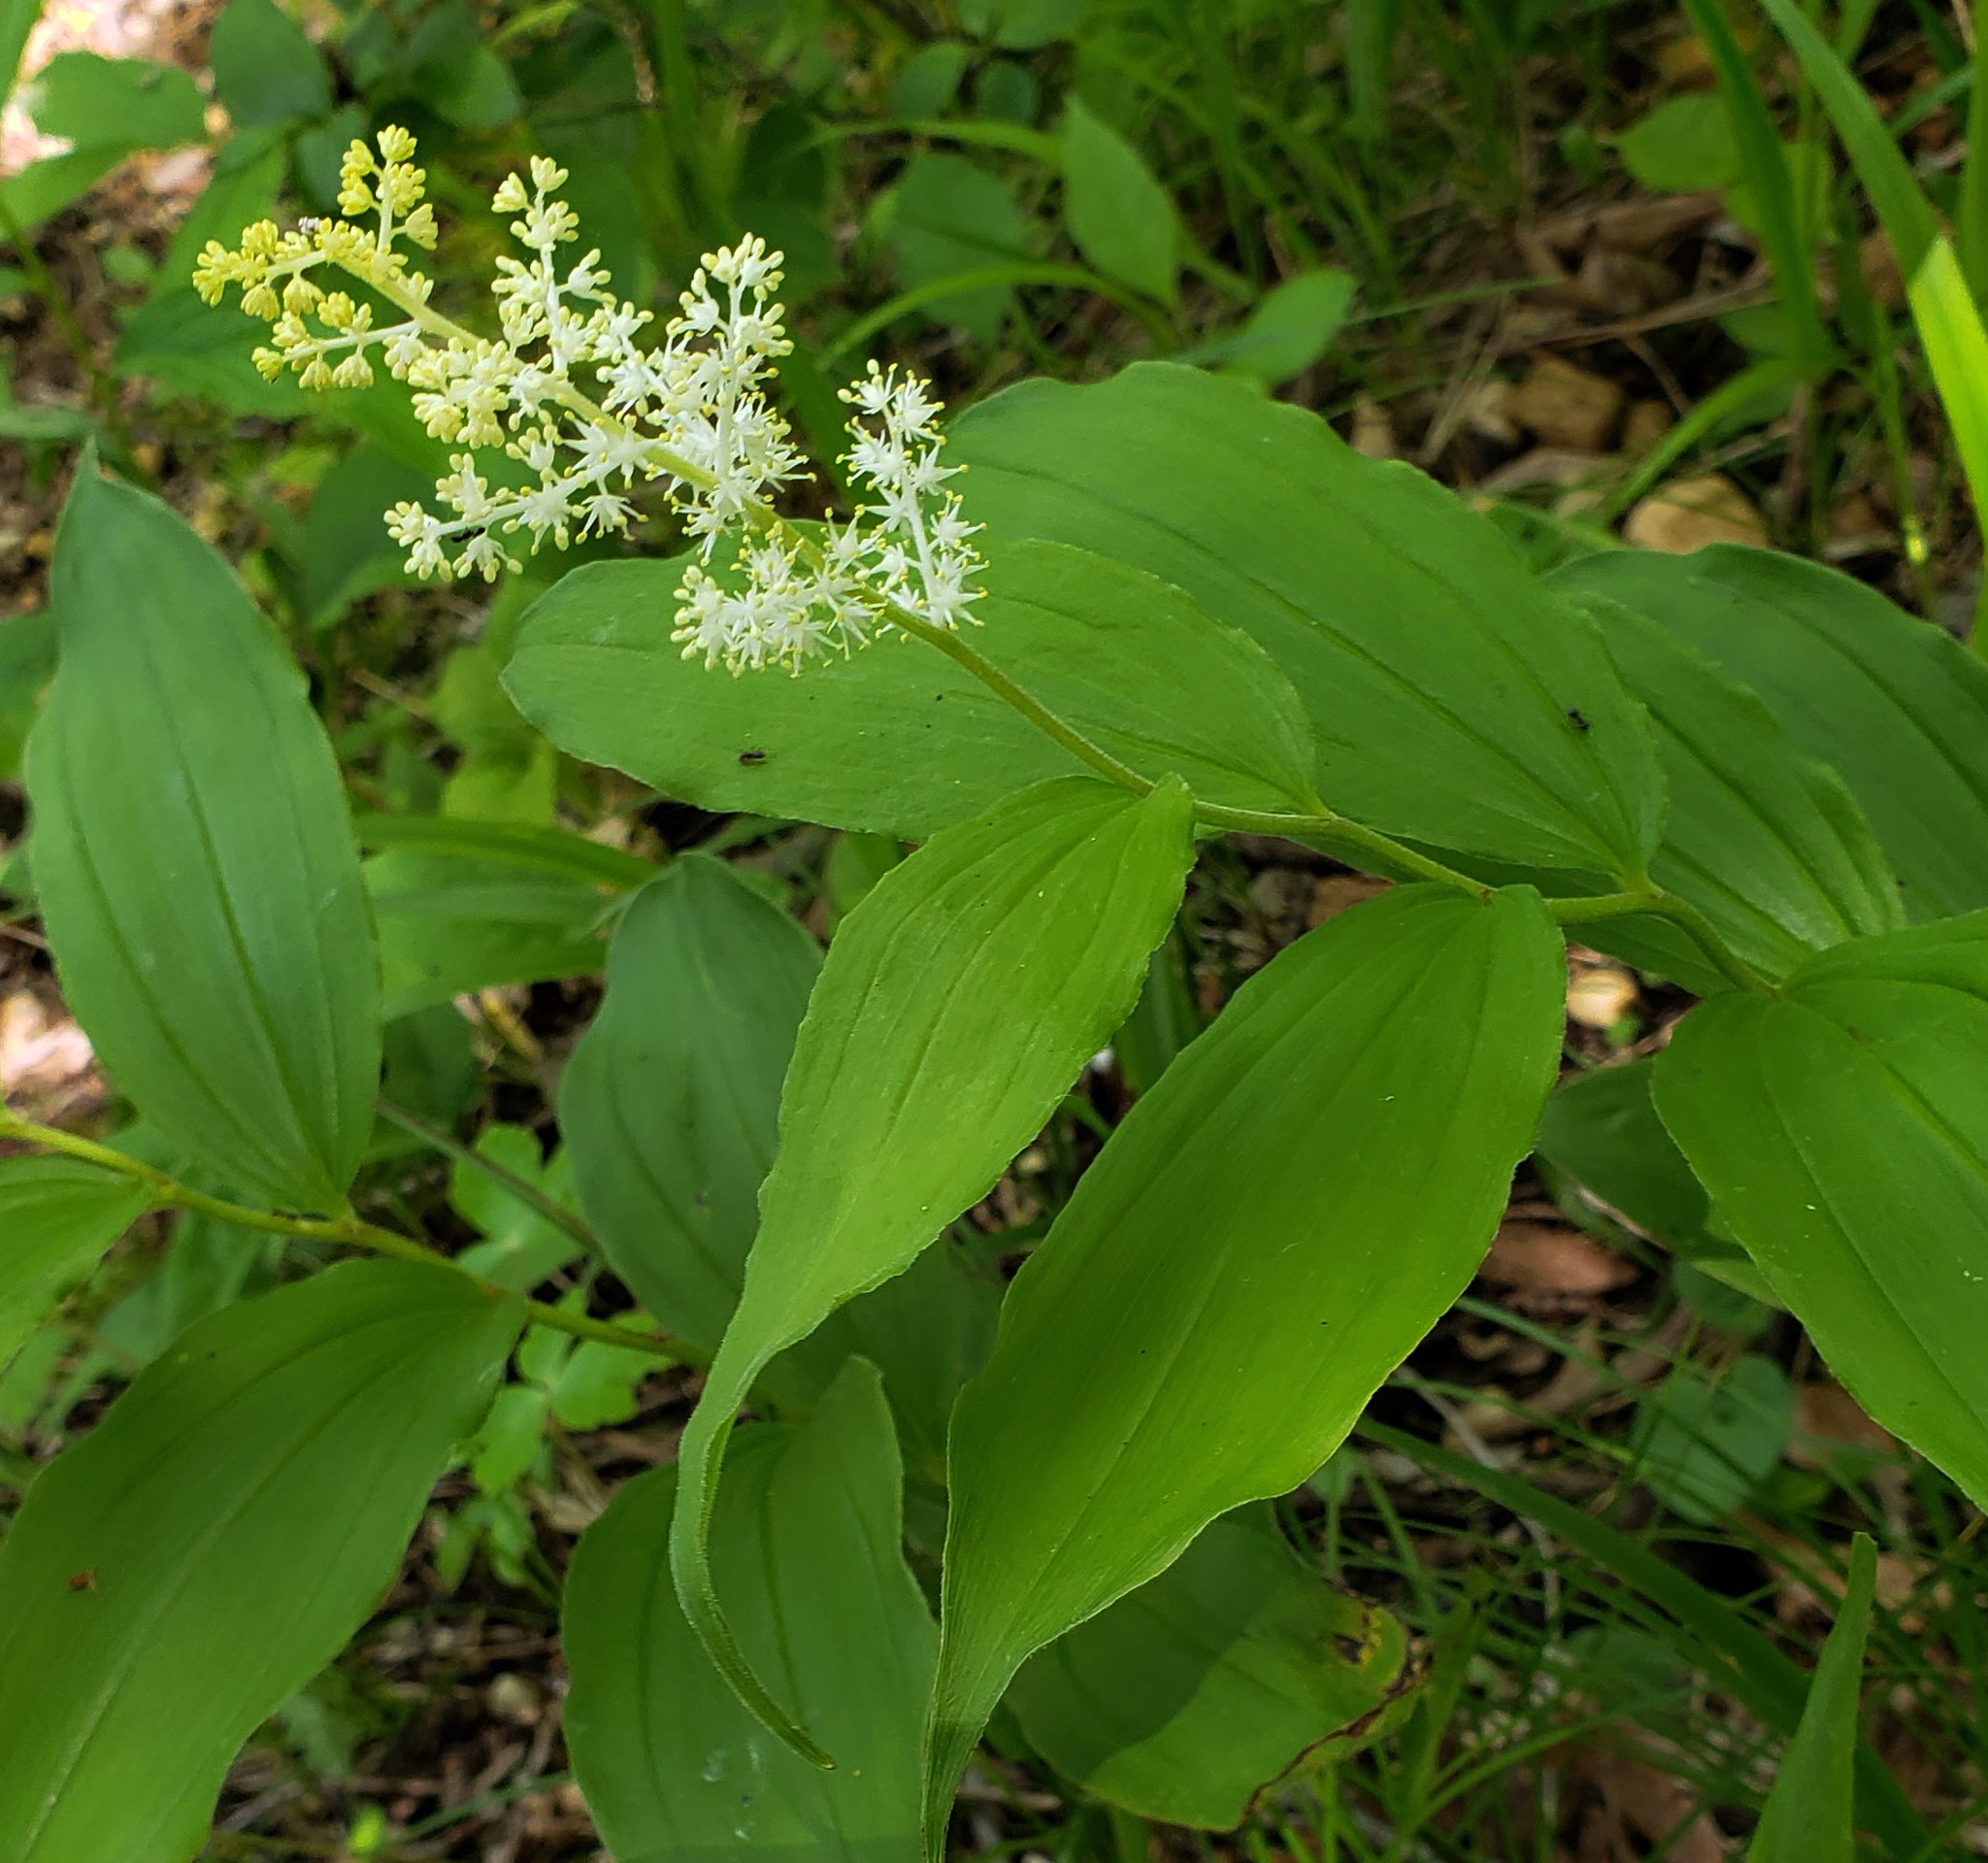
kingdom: Plantae
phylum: Tracheophyta
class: Liliopsida
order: Asparagales
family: Asparagaceae
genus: Maianthemum
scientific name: Maianthemum racemosum
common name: False spikenard
